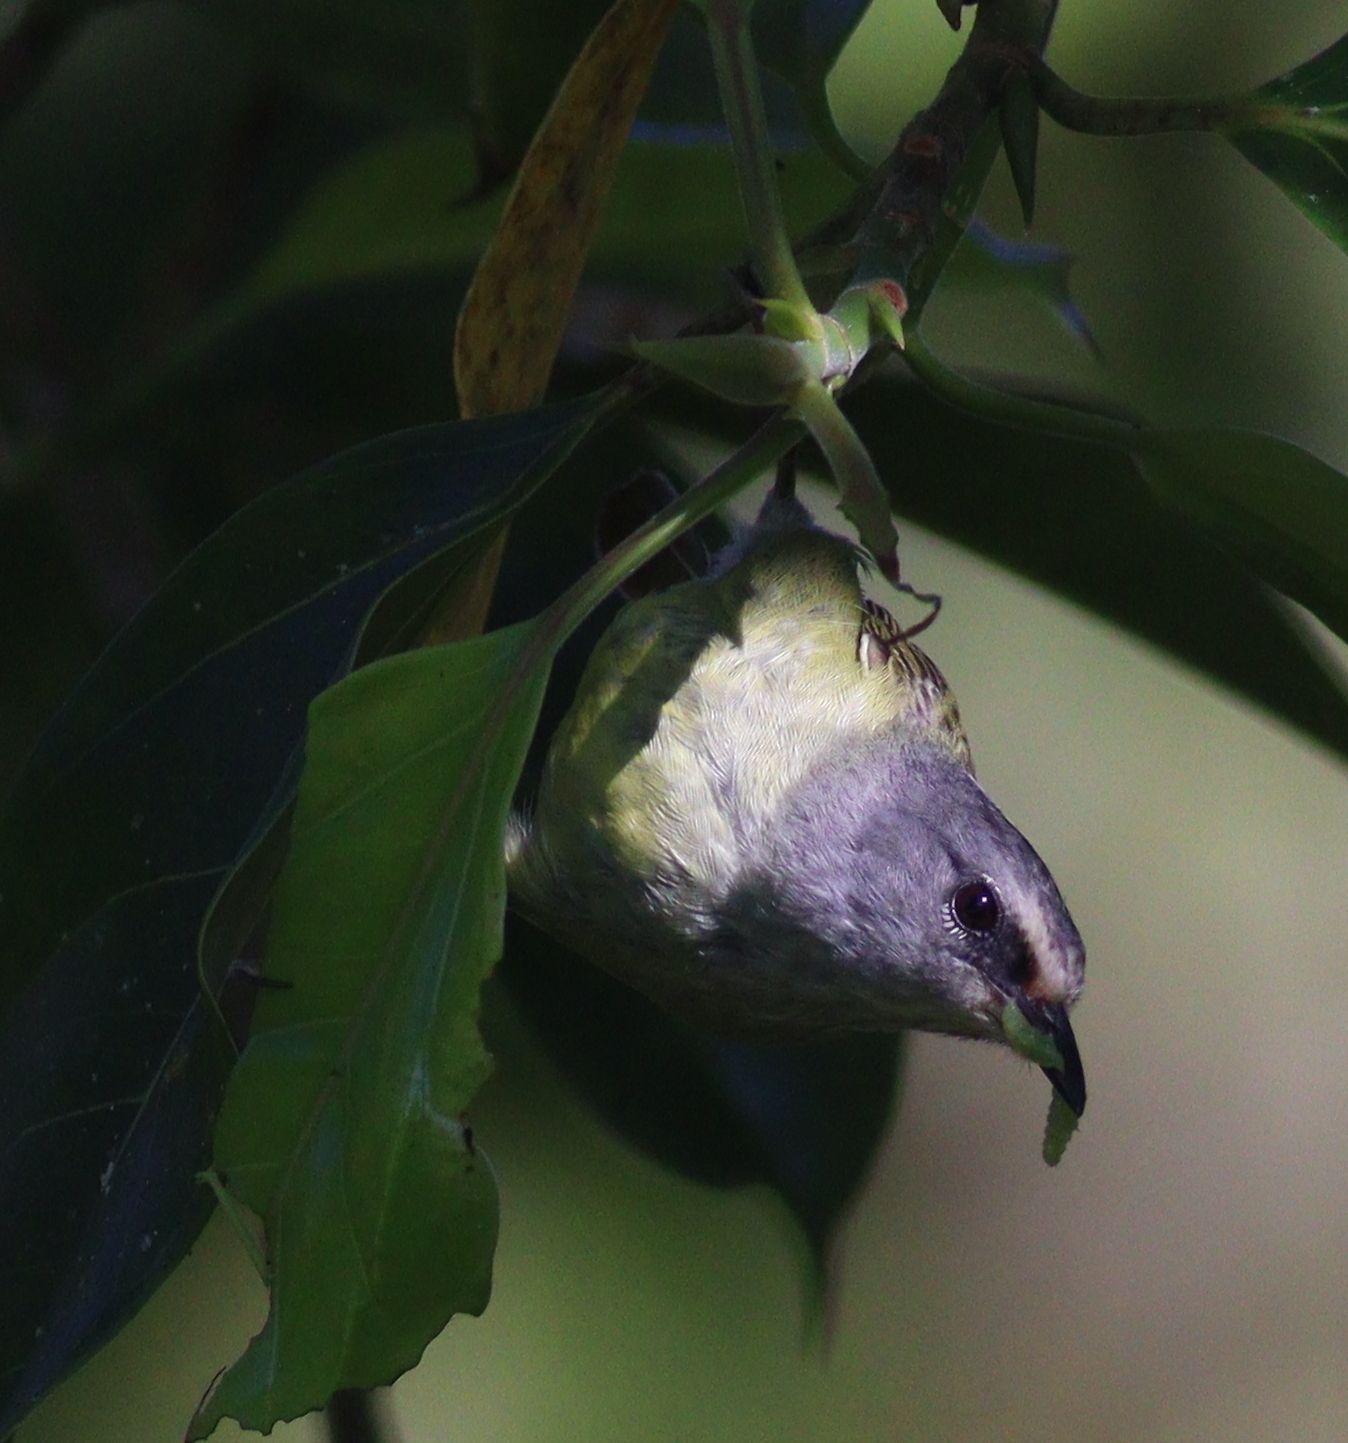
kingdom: Animalia
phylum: Chordata
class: Aves
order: Passeriformes
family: Zosteropidae
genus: Lophozosterops
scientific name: Lophozosterops javanicus
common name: Grey-throated ibon
